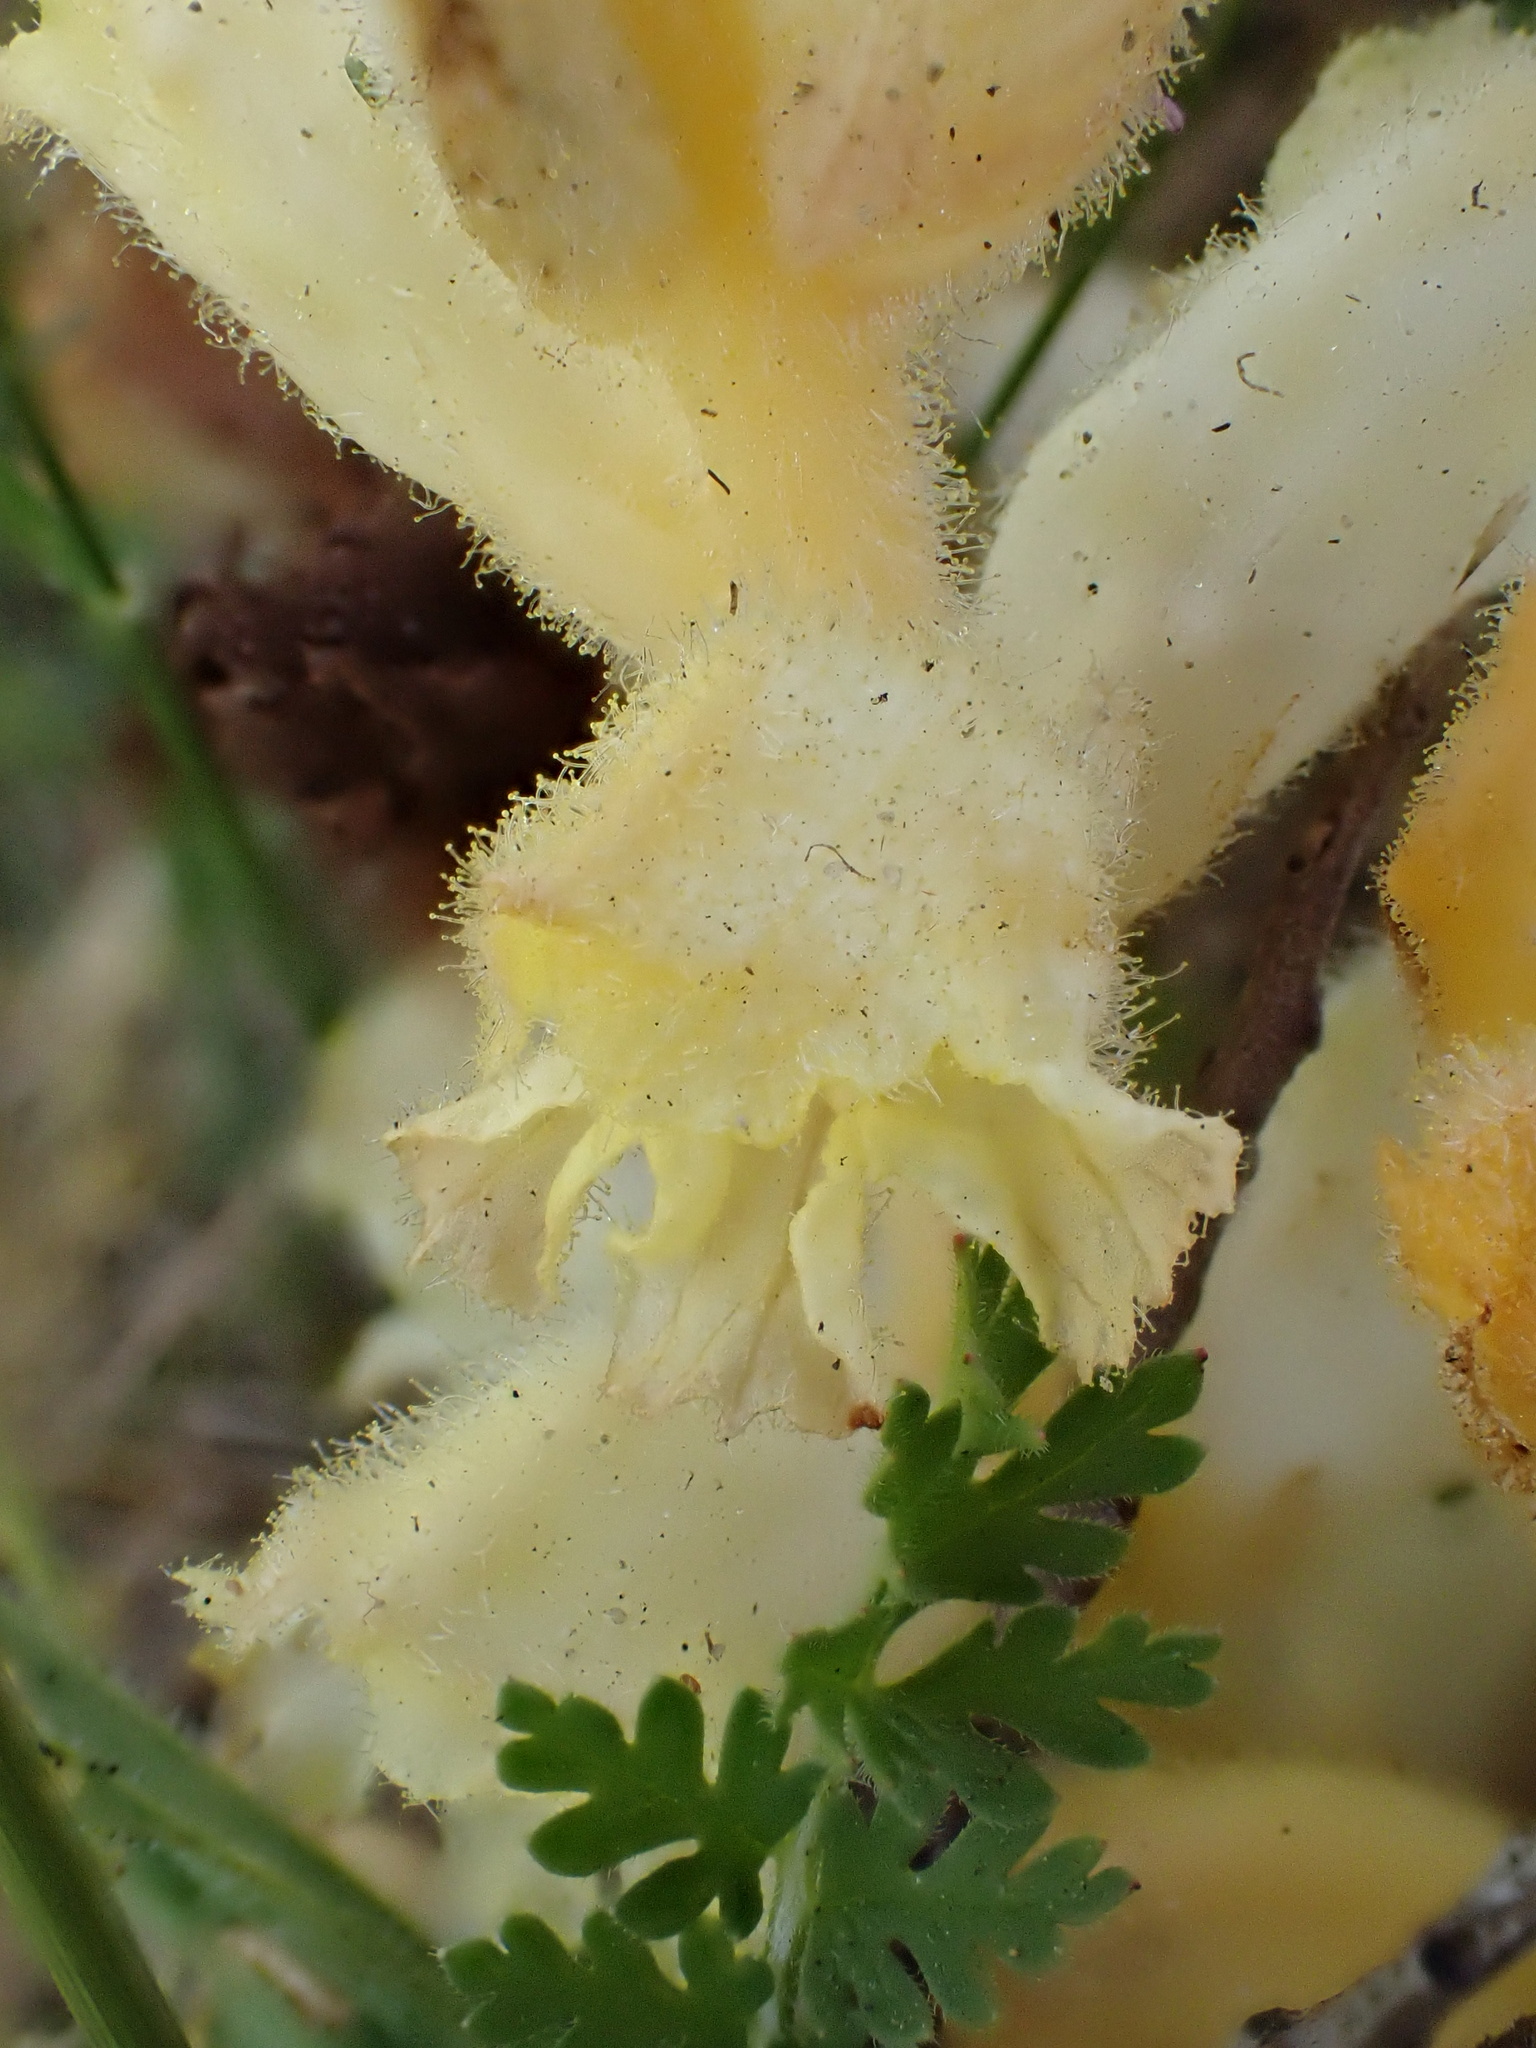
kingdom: Plantae
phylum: Tracheophyta
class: Magnoliopsida
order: Lamiales
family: Orobanchaceae
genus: Orobanche
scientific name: Orobanche caryophyllacea
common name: Bedstraw broomrape
